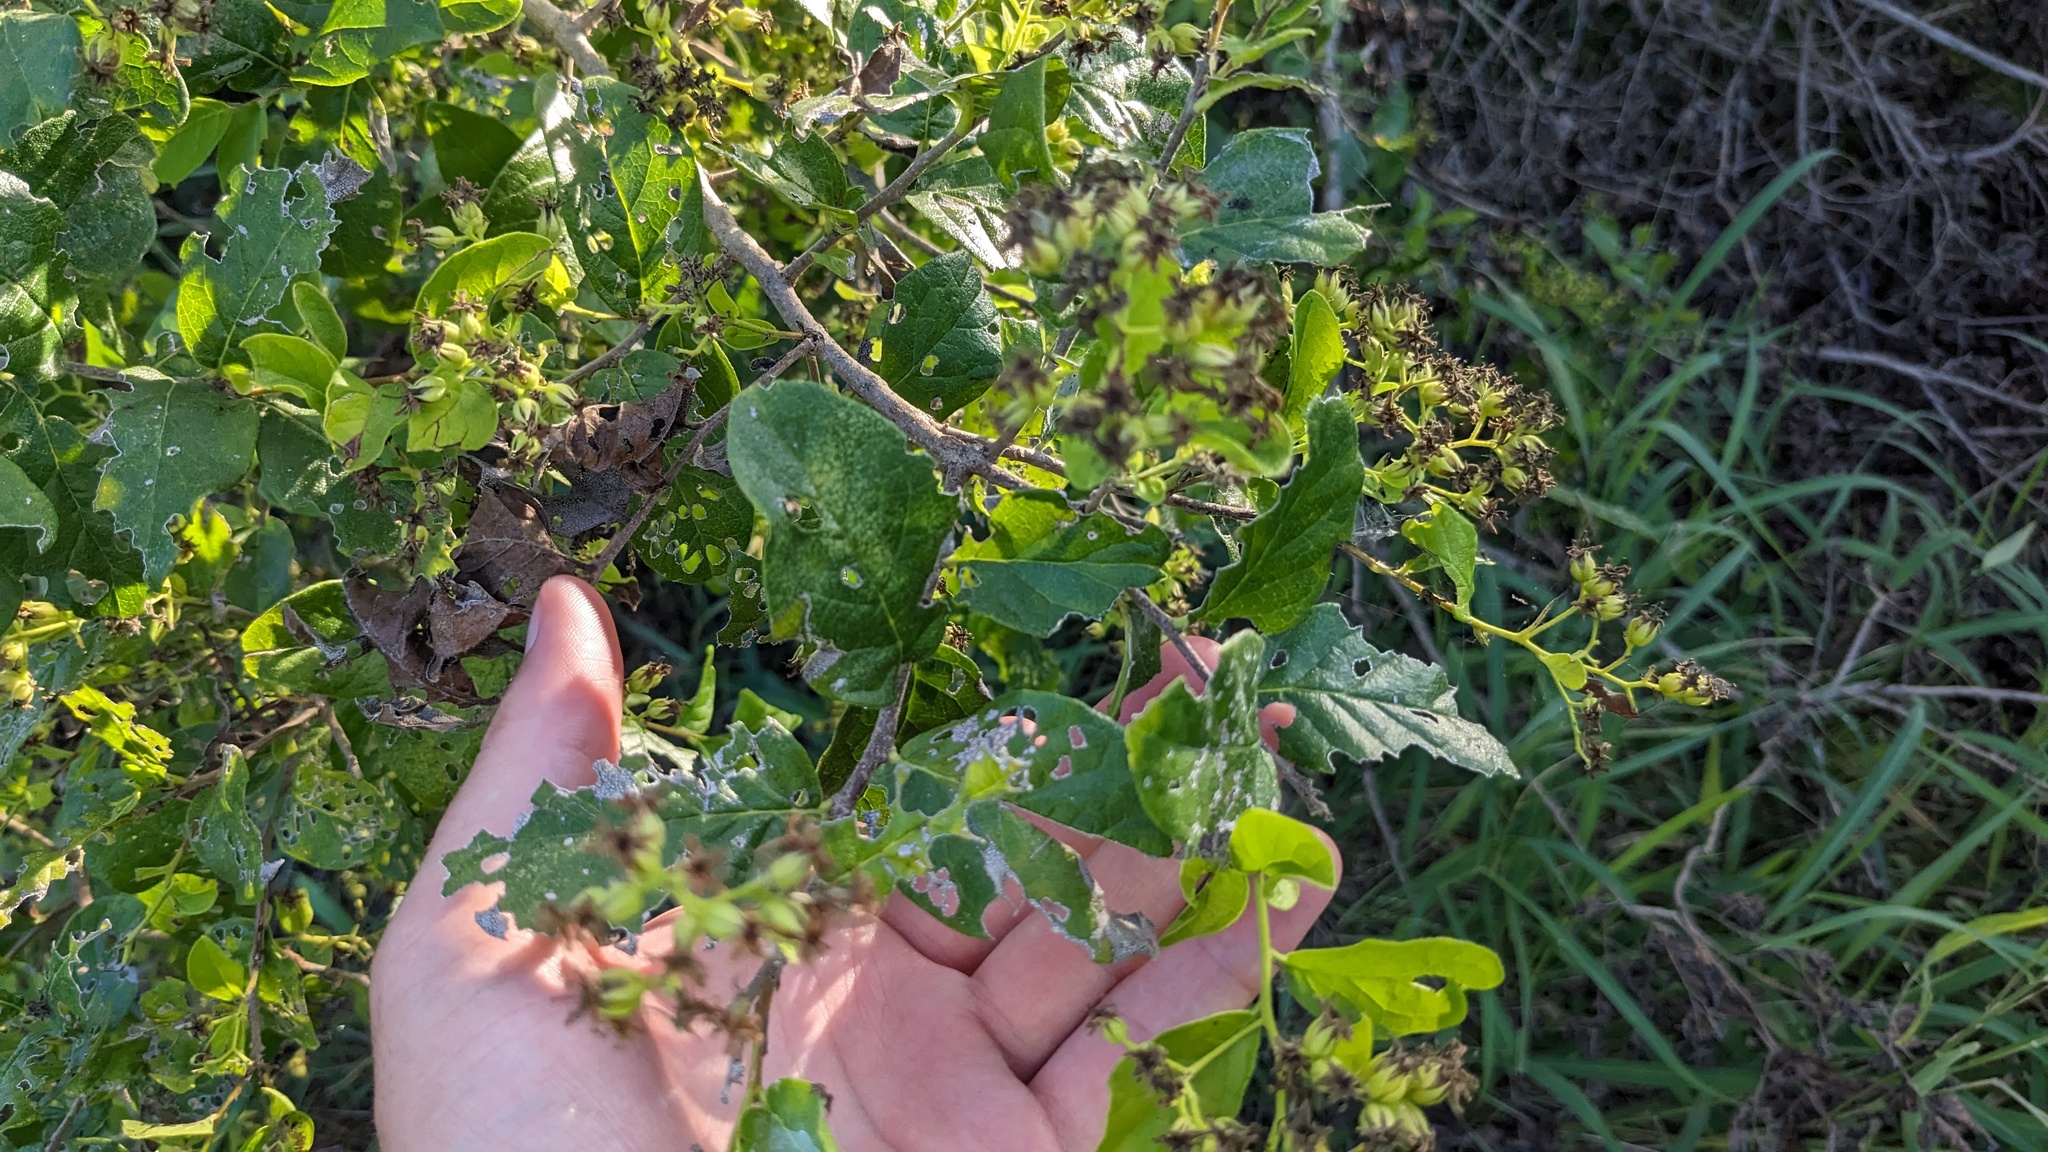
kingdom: Plantae
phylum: Tracheophyta
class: Magnoliopsida
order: Boraginales
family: Ehretiaceae
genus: Ehretia
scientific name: Ehretia anacua
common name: Sugarberry
